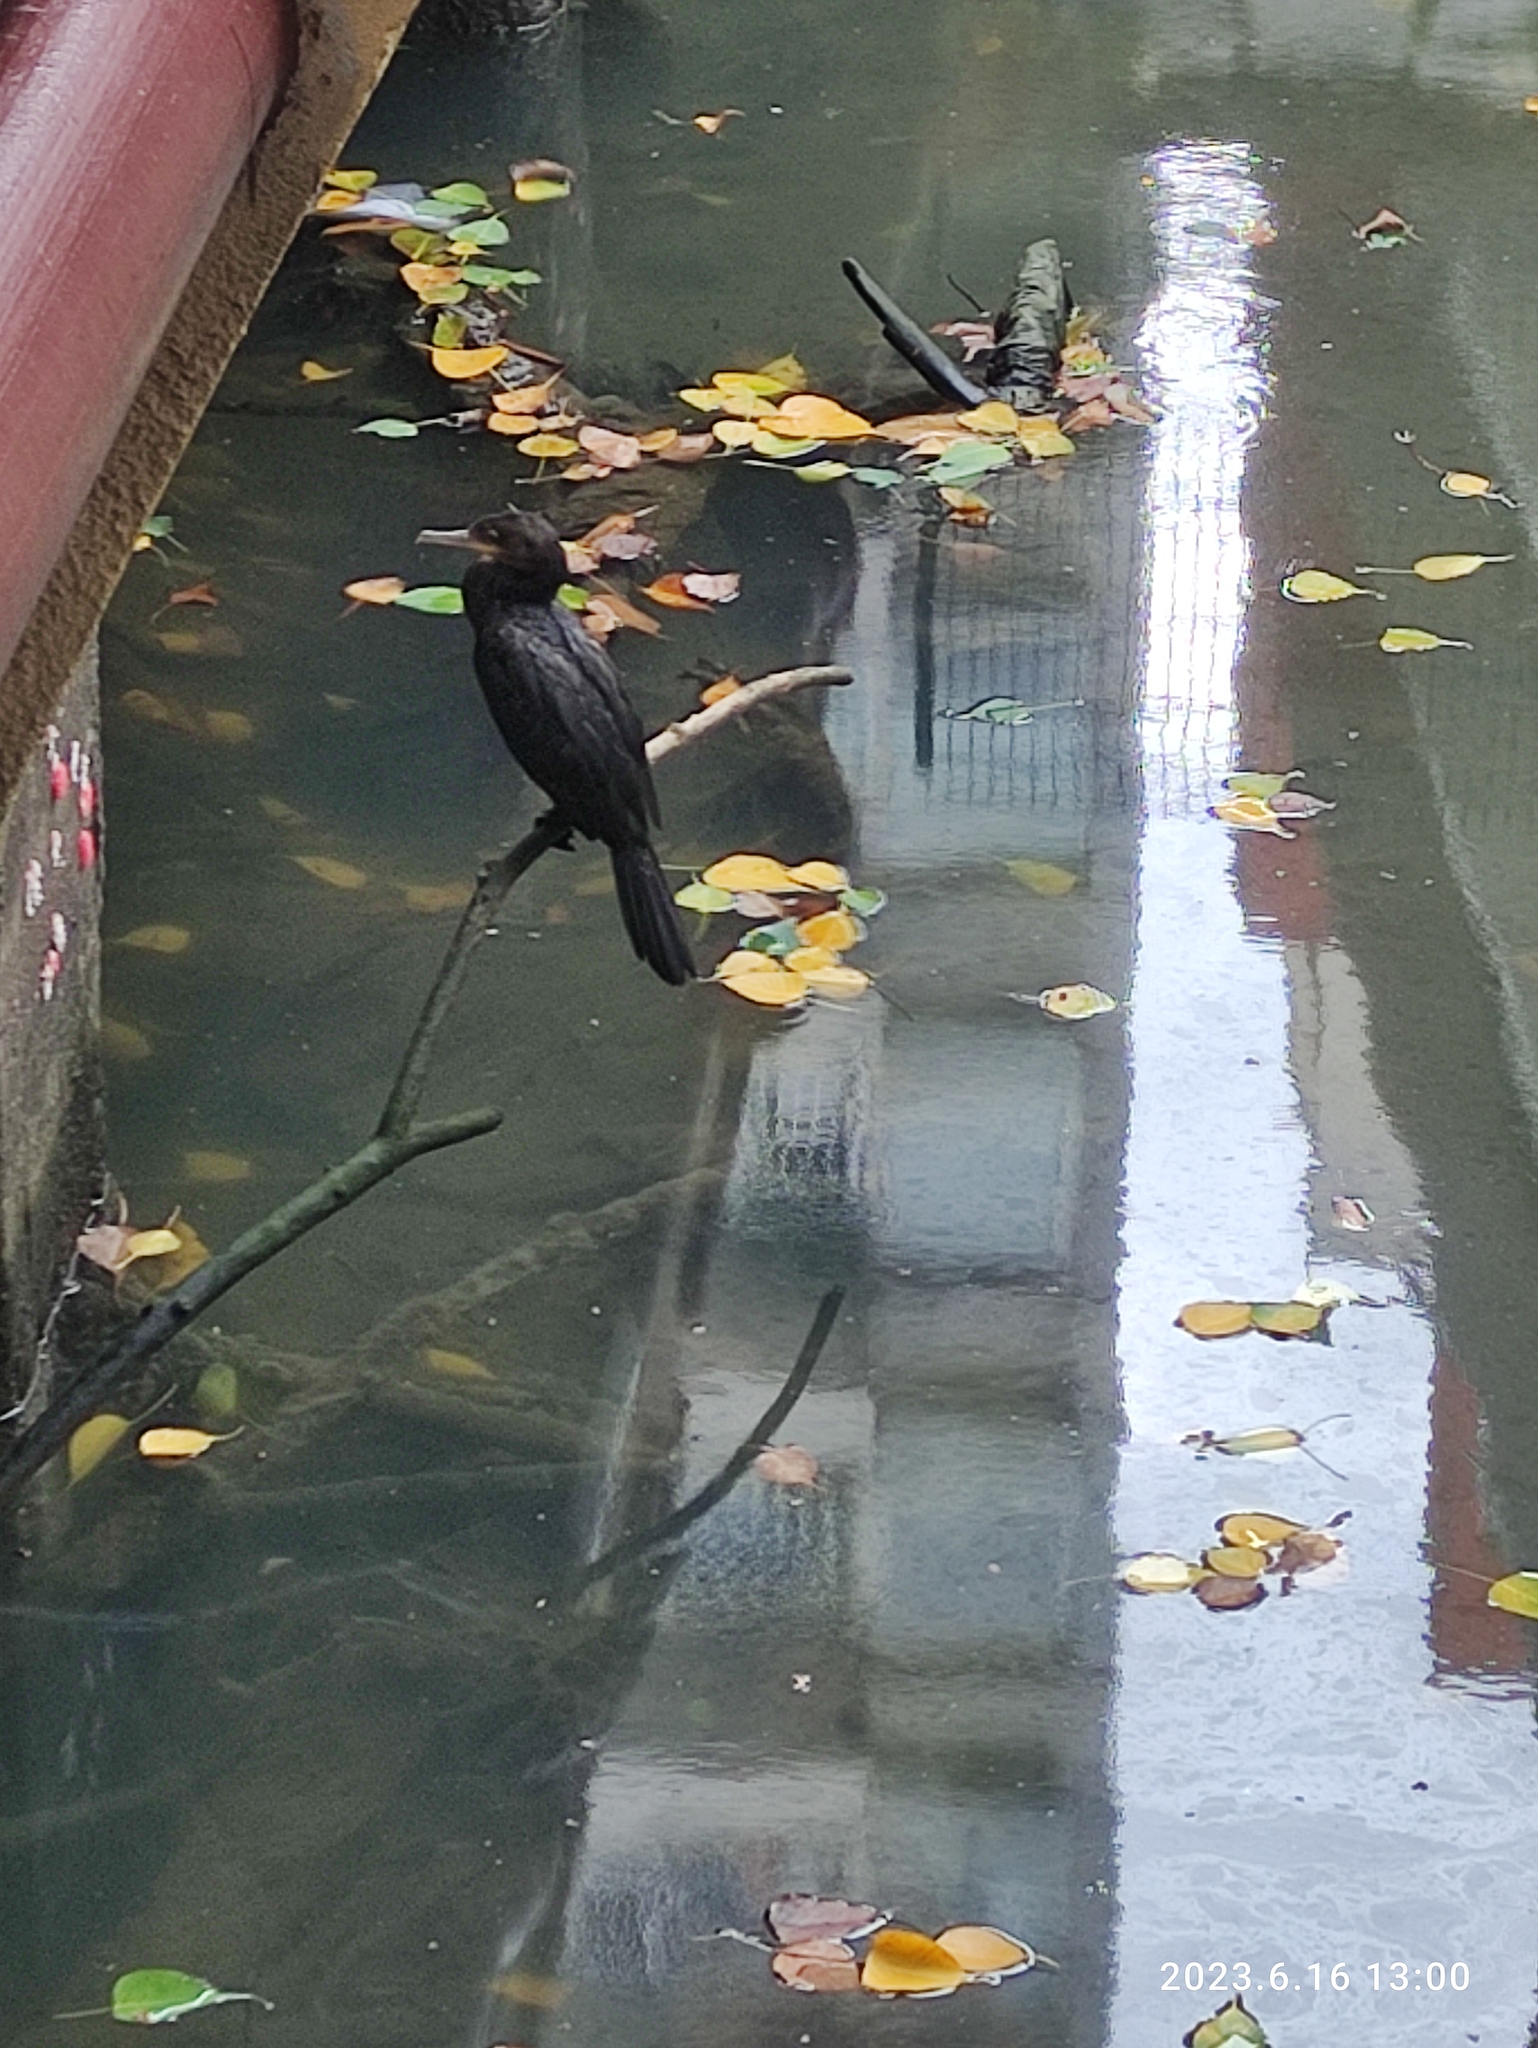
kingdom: Animalia
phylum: Chordata
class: Aves
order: Suliformes
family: Phalacrocoracidae
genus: Phalacrocorax
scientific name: Phalacrocorax brasilianus
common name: Neotropic cormorant
